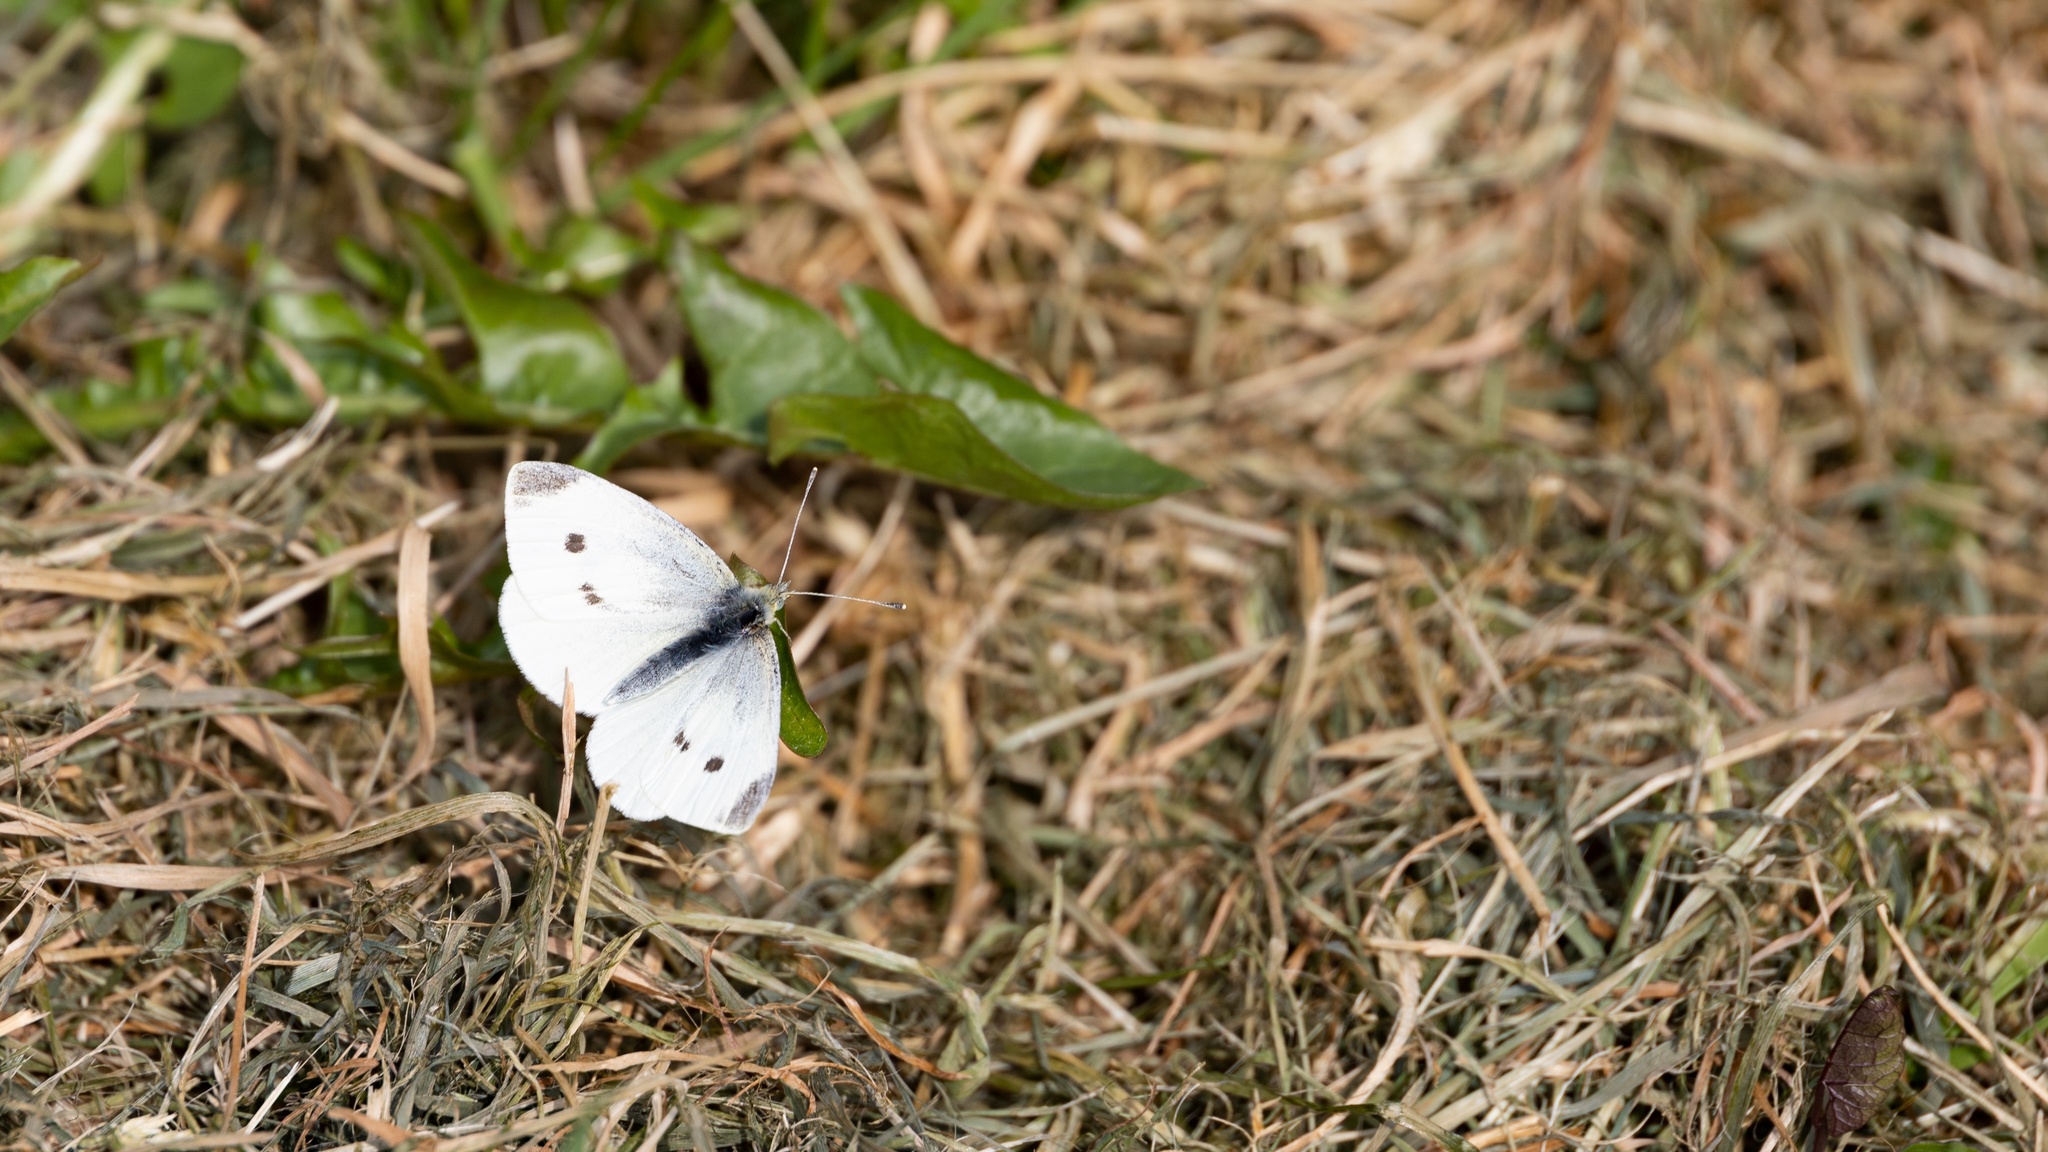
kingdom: Animalia
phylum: Arthropoda
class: Insecta
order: Lepidoptera
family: Pieridae
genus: Pieris
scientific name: Pieris rapae
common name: Small white
